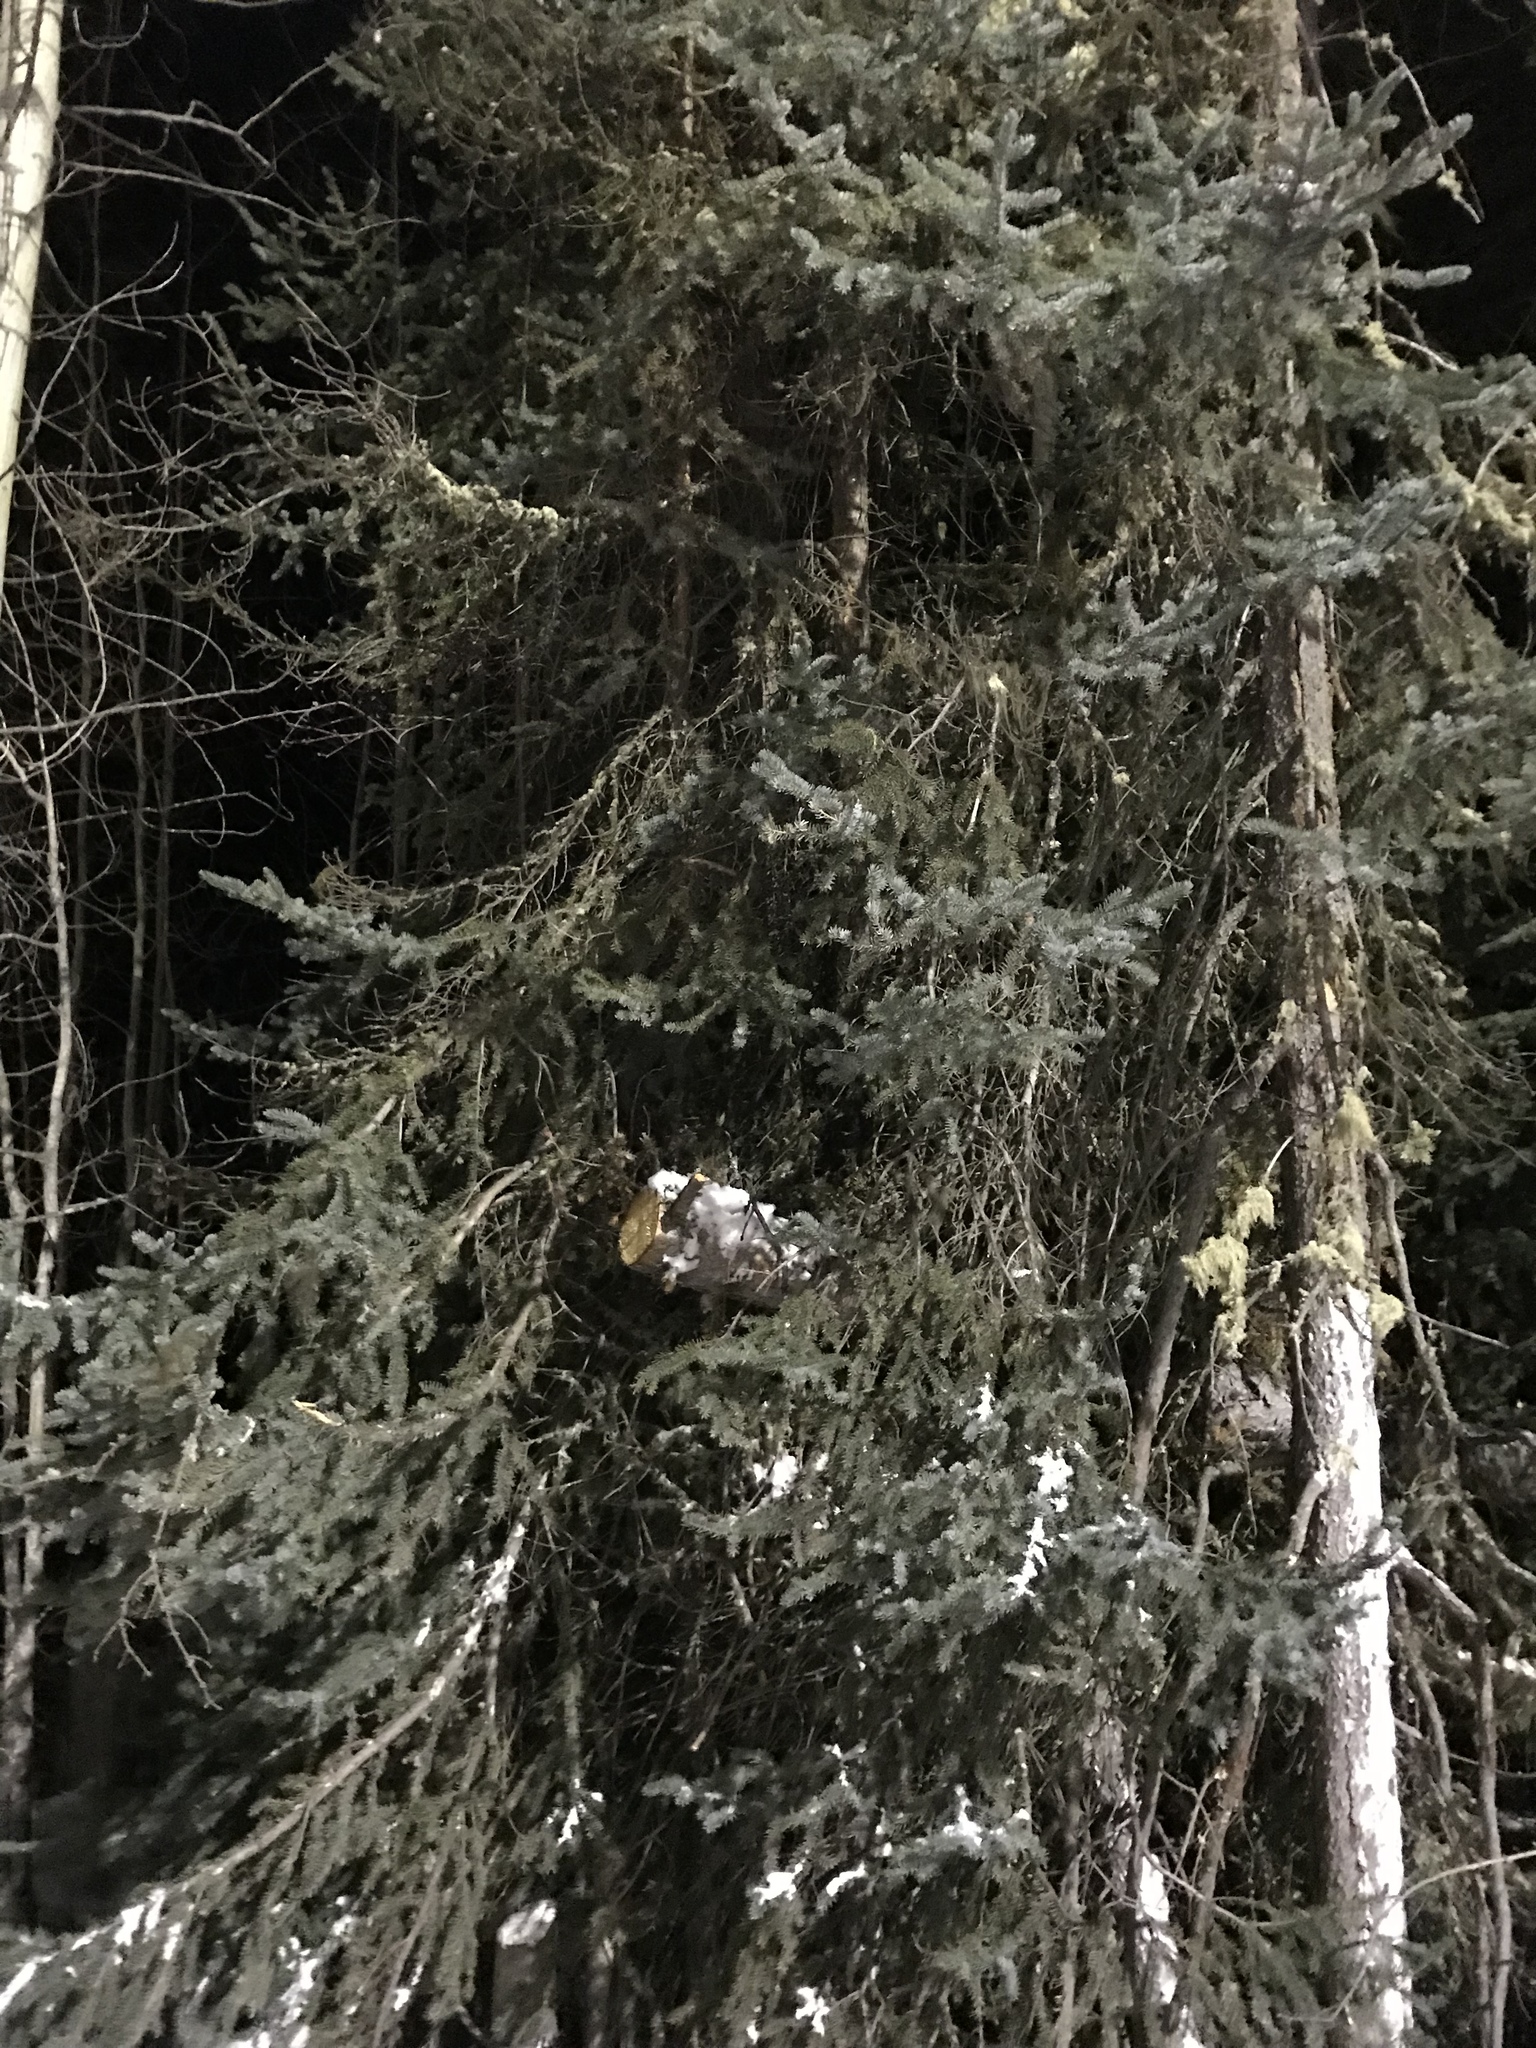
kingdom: Plantae
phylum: Tracheophyta
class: Pinopsida
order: Pinales
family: Pinaceae
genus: Picea
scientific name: Picea mariana
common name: Black spruce
